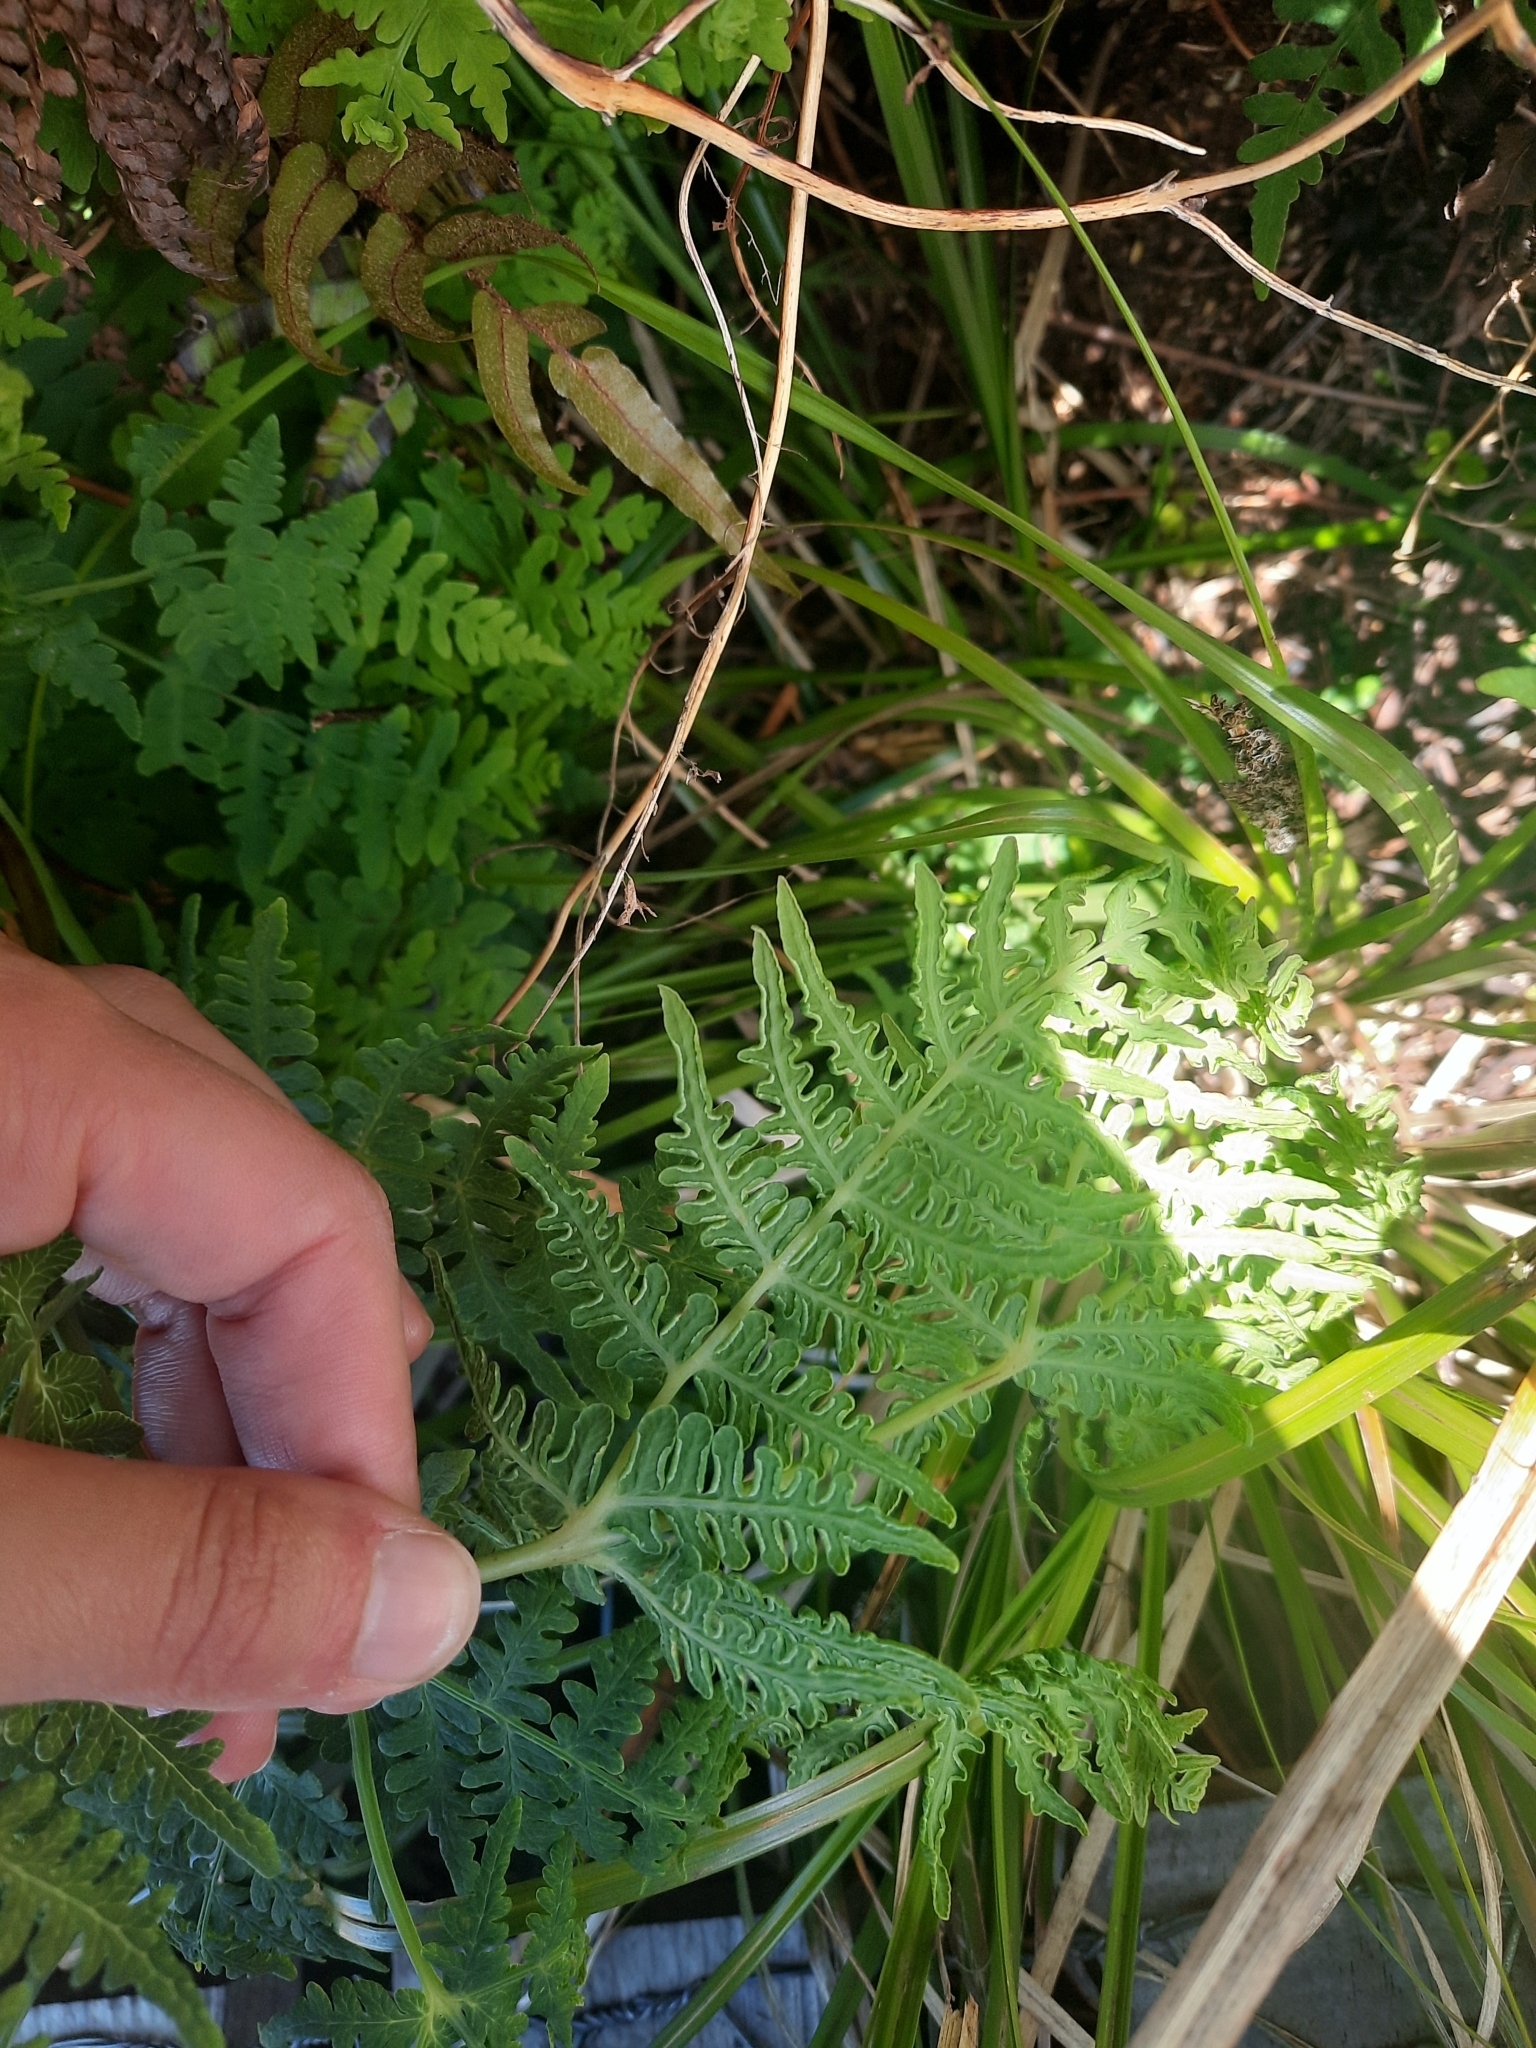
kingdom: Plantae
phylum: Tracheophyta
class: Polypodiopsida
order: Polypodiales
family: Dennstaedtiaceae
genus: Histiopteris
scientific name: Histiopteris incisa
